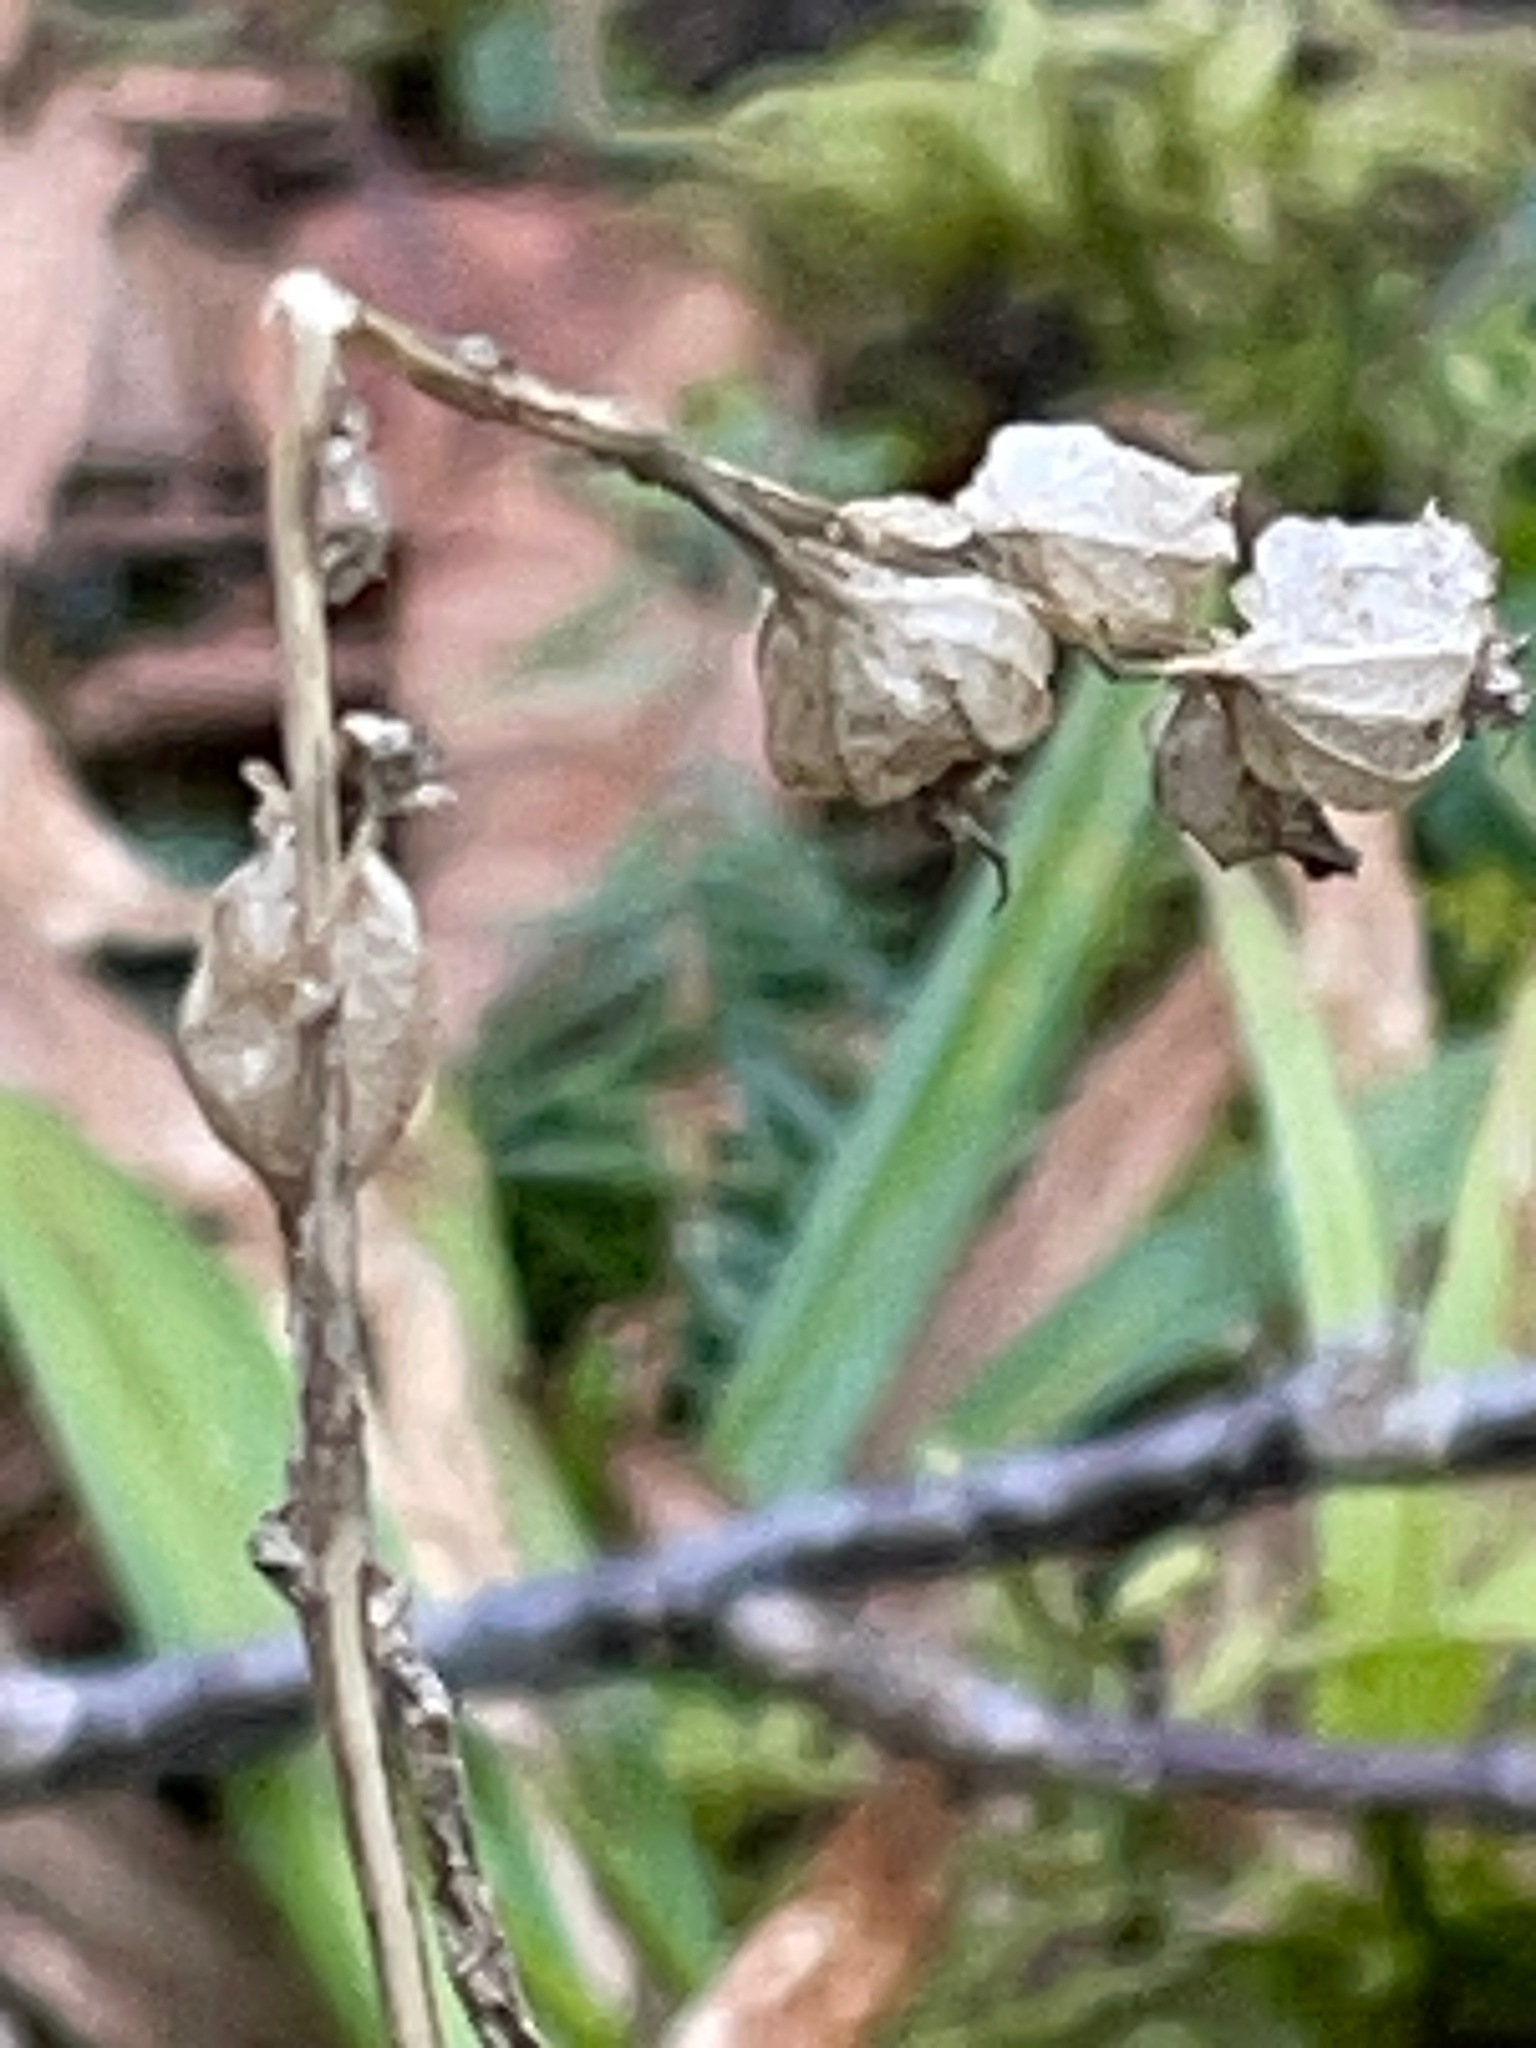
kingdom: Plantae
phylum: Tracheophyta
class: Magnoliopsida
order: Asterales
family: Campanulaceae
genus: Lobelia
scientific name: Lobelia inflata
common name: Indian tobacco
